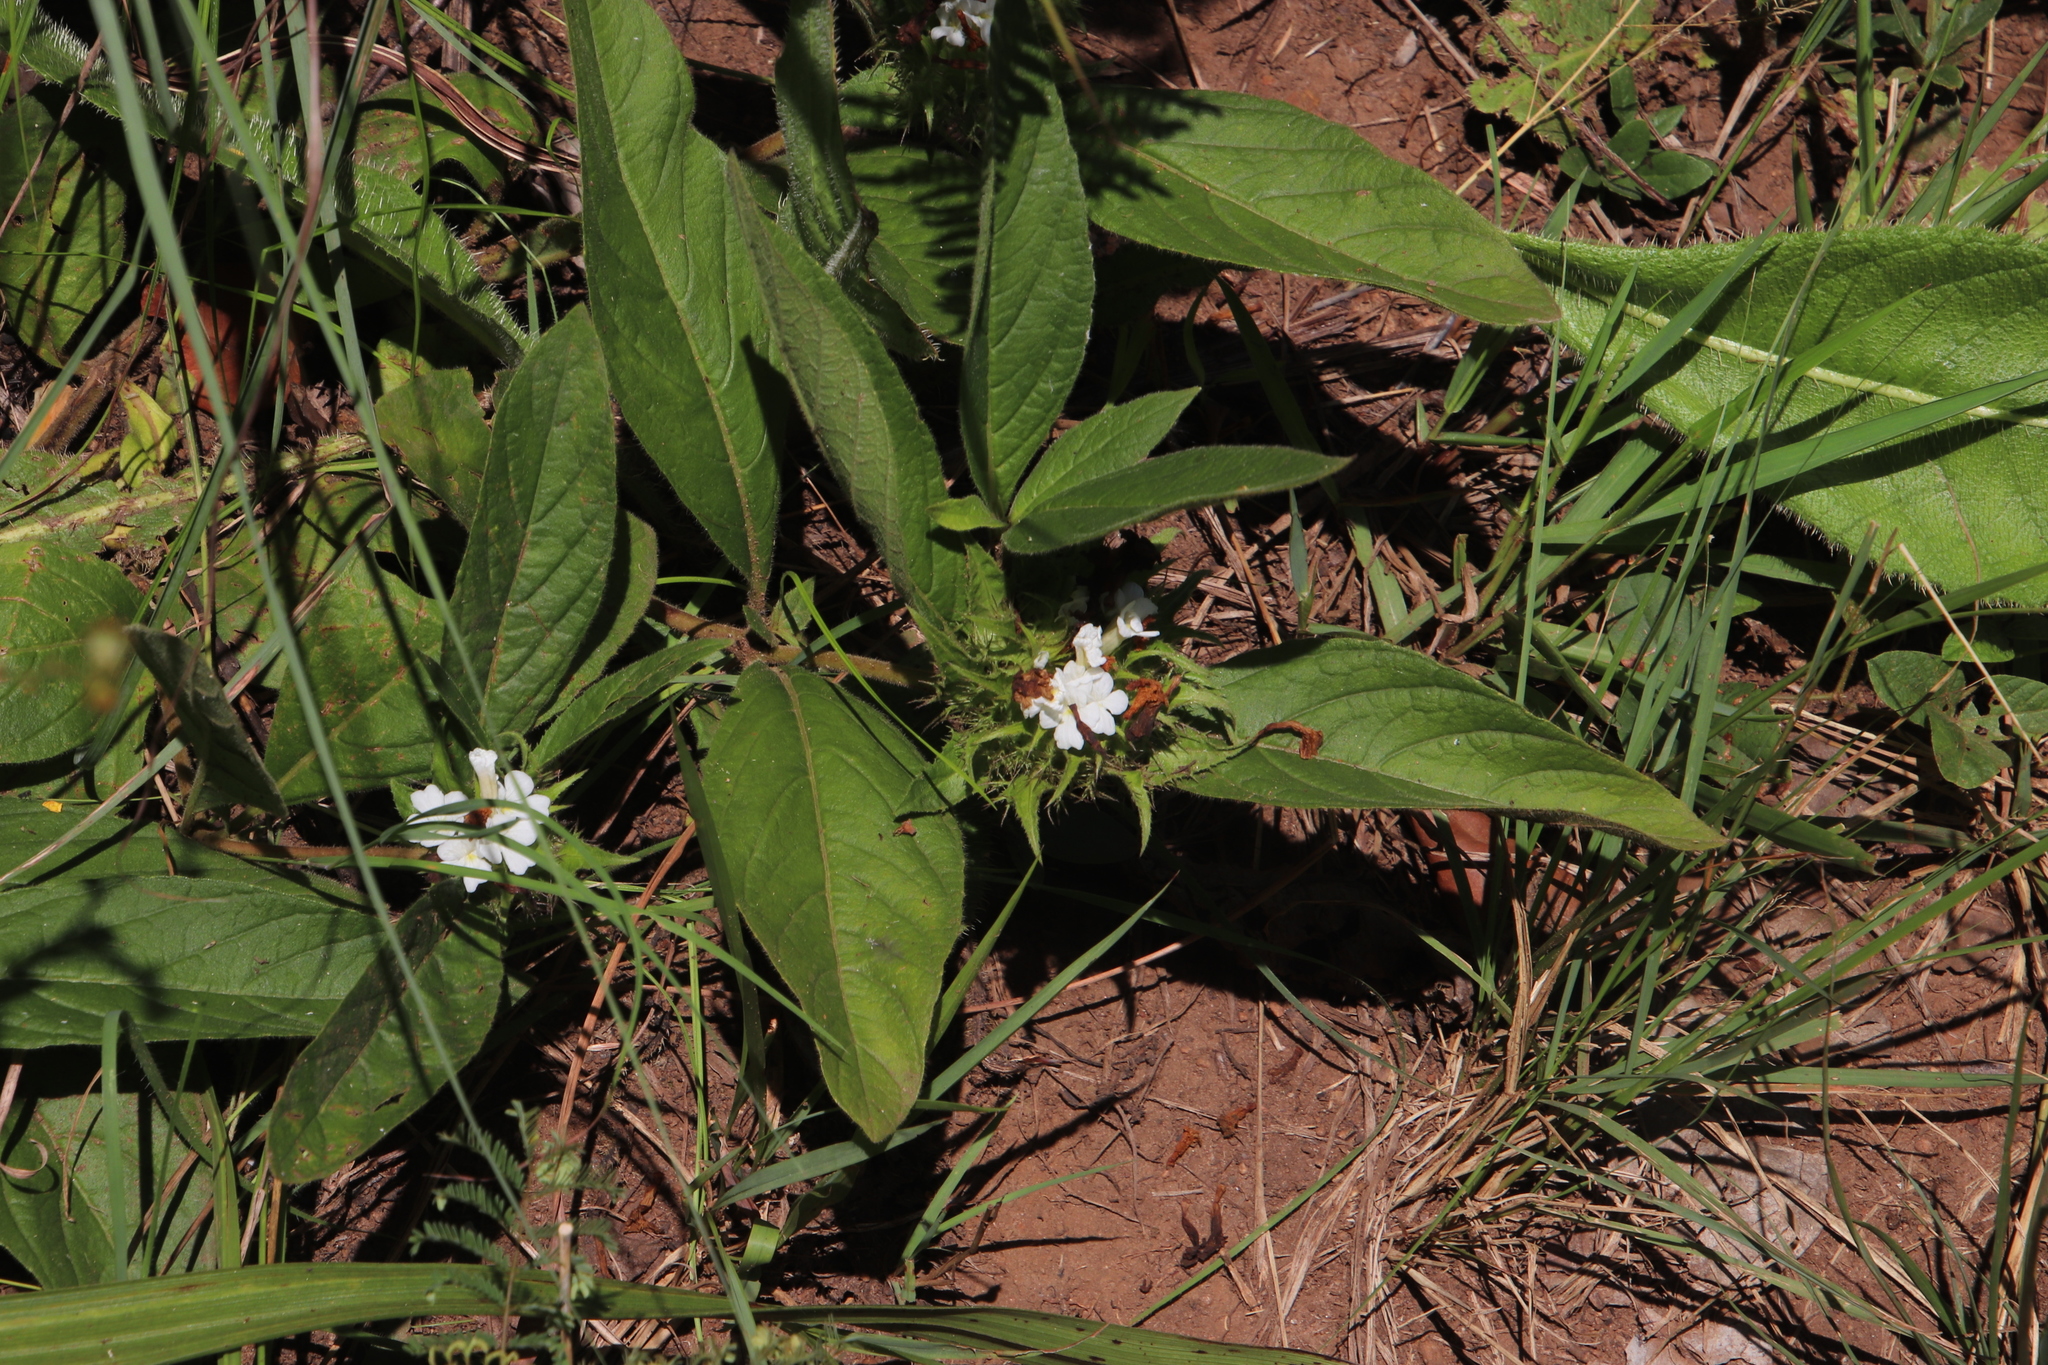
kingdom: Plantae
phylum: Tracheophyta
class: Magnoliopsida
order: Lamiales
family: Acanthaceae
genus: Crabbea
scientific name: Crabbea cirsioides
